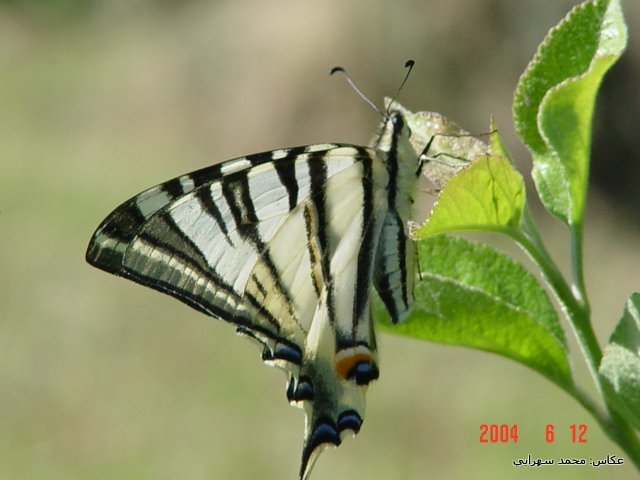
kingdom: Animalia
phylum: Arthropoda
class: Insecta
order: Lepidoptera
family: Papilionidae
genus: Iphiclides
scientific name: Iphiclides podalirius
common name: Scarce swallowtail
